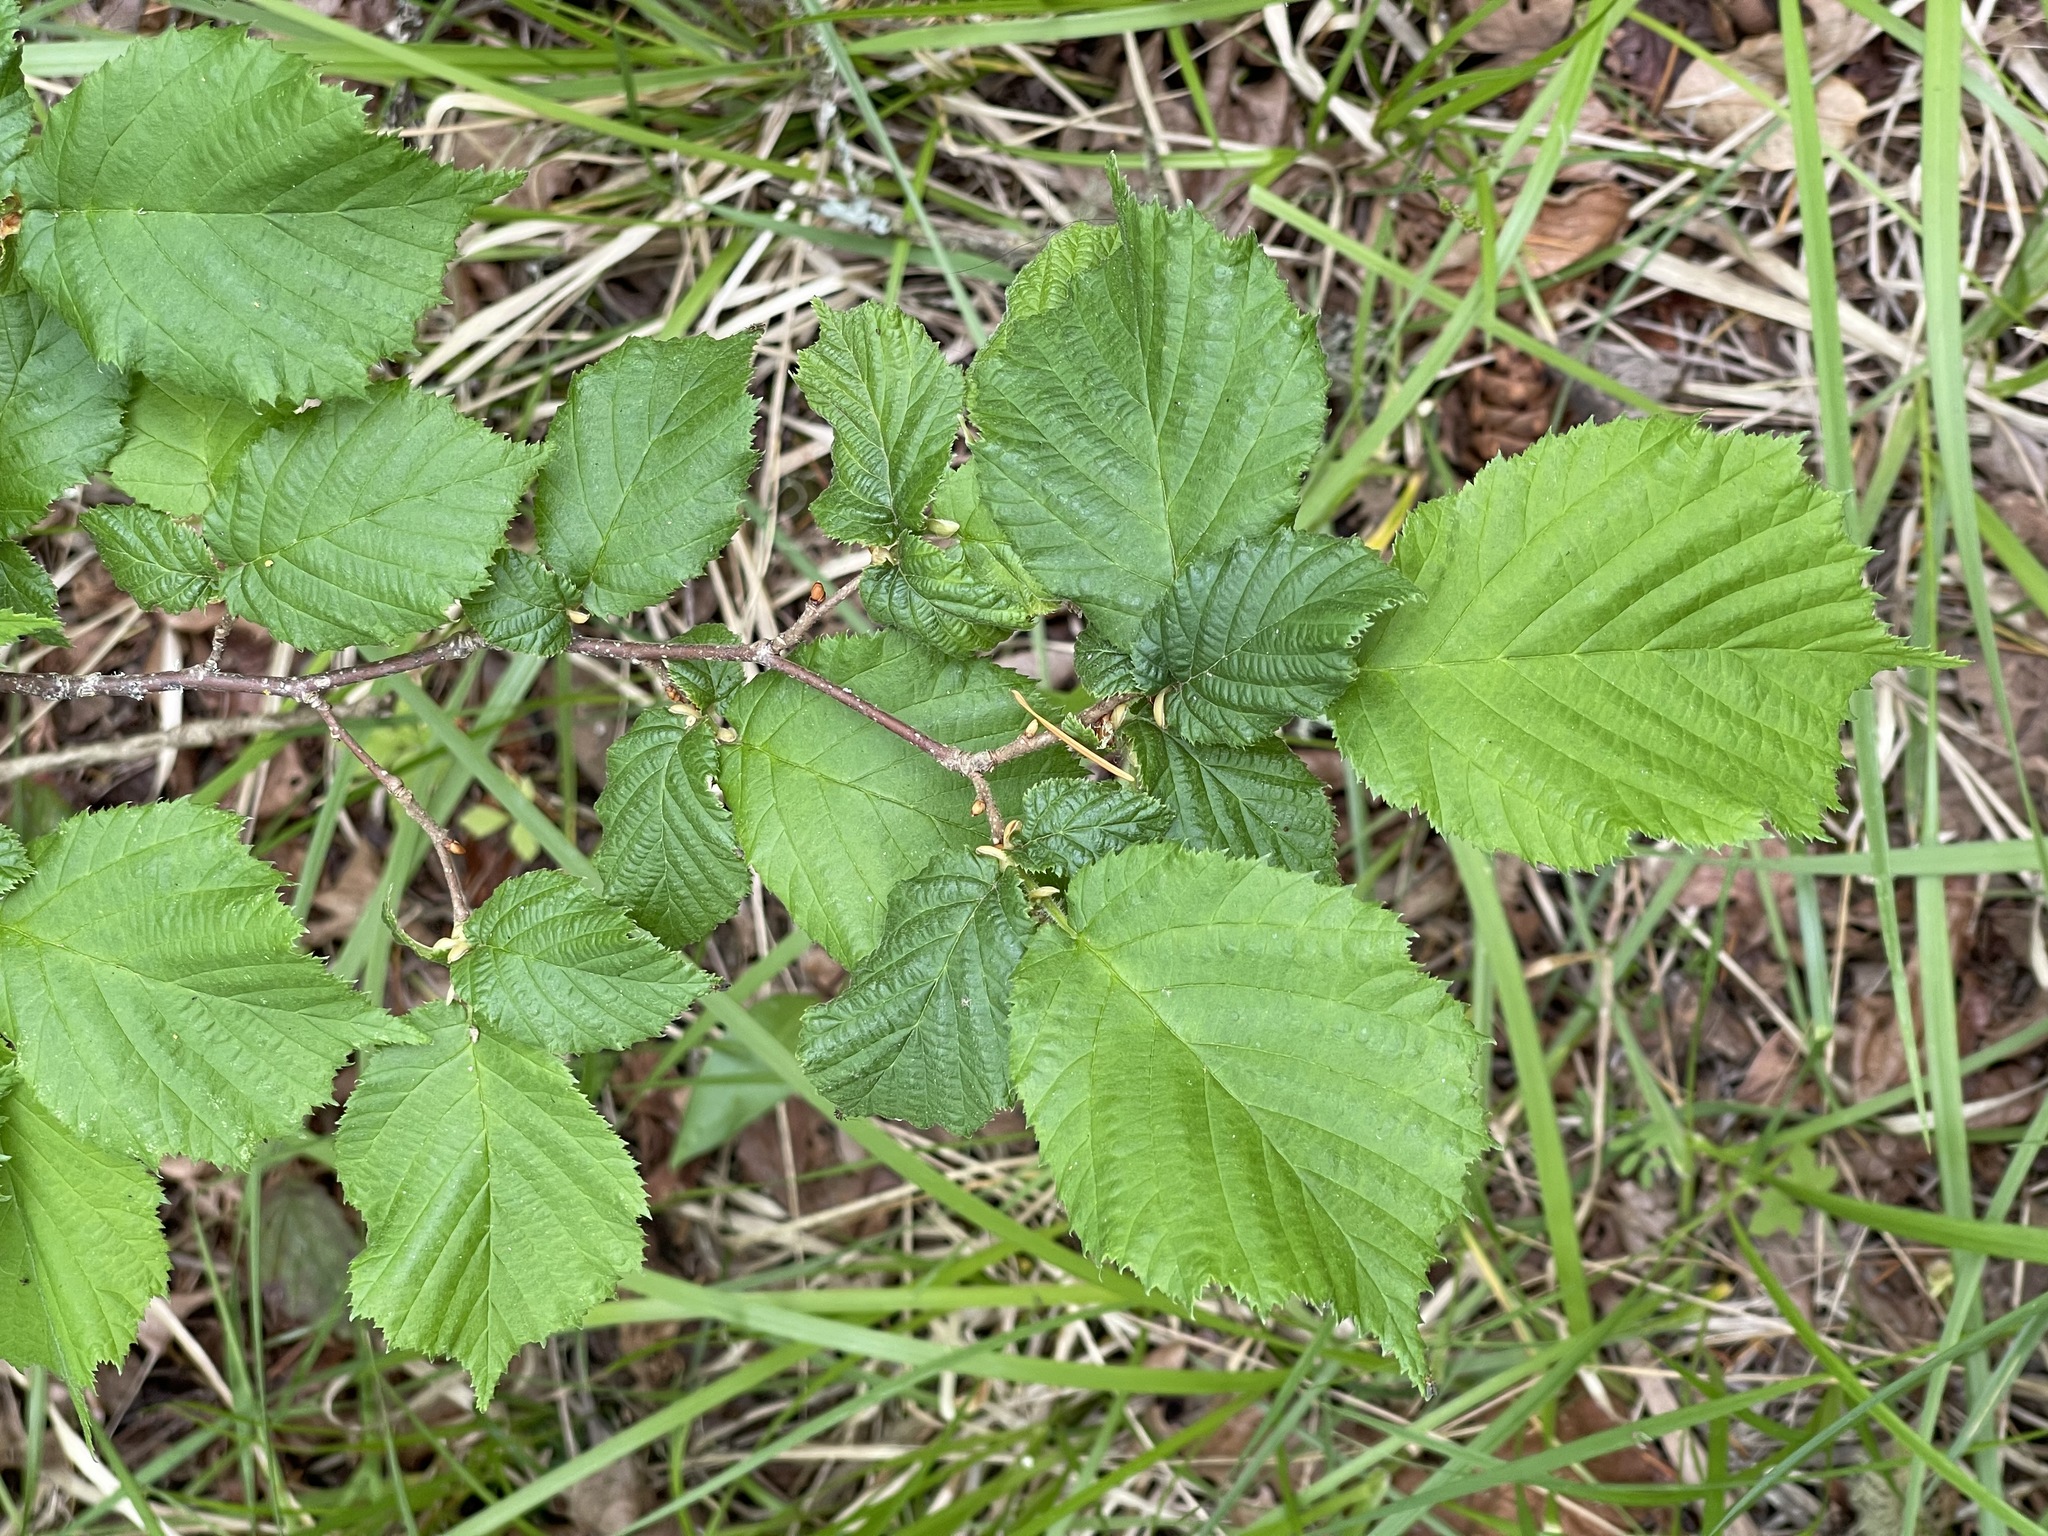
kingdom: Plantae
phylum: Tracheophyta
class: Magnoliopsida
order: Fagales
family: Betulaceae
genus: Corylus
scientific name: Corylus cornuta
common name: Beaked hazel
